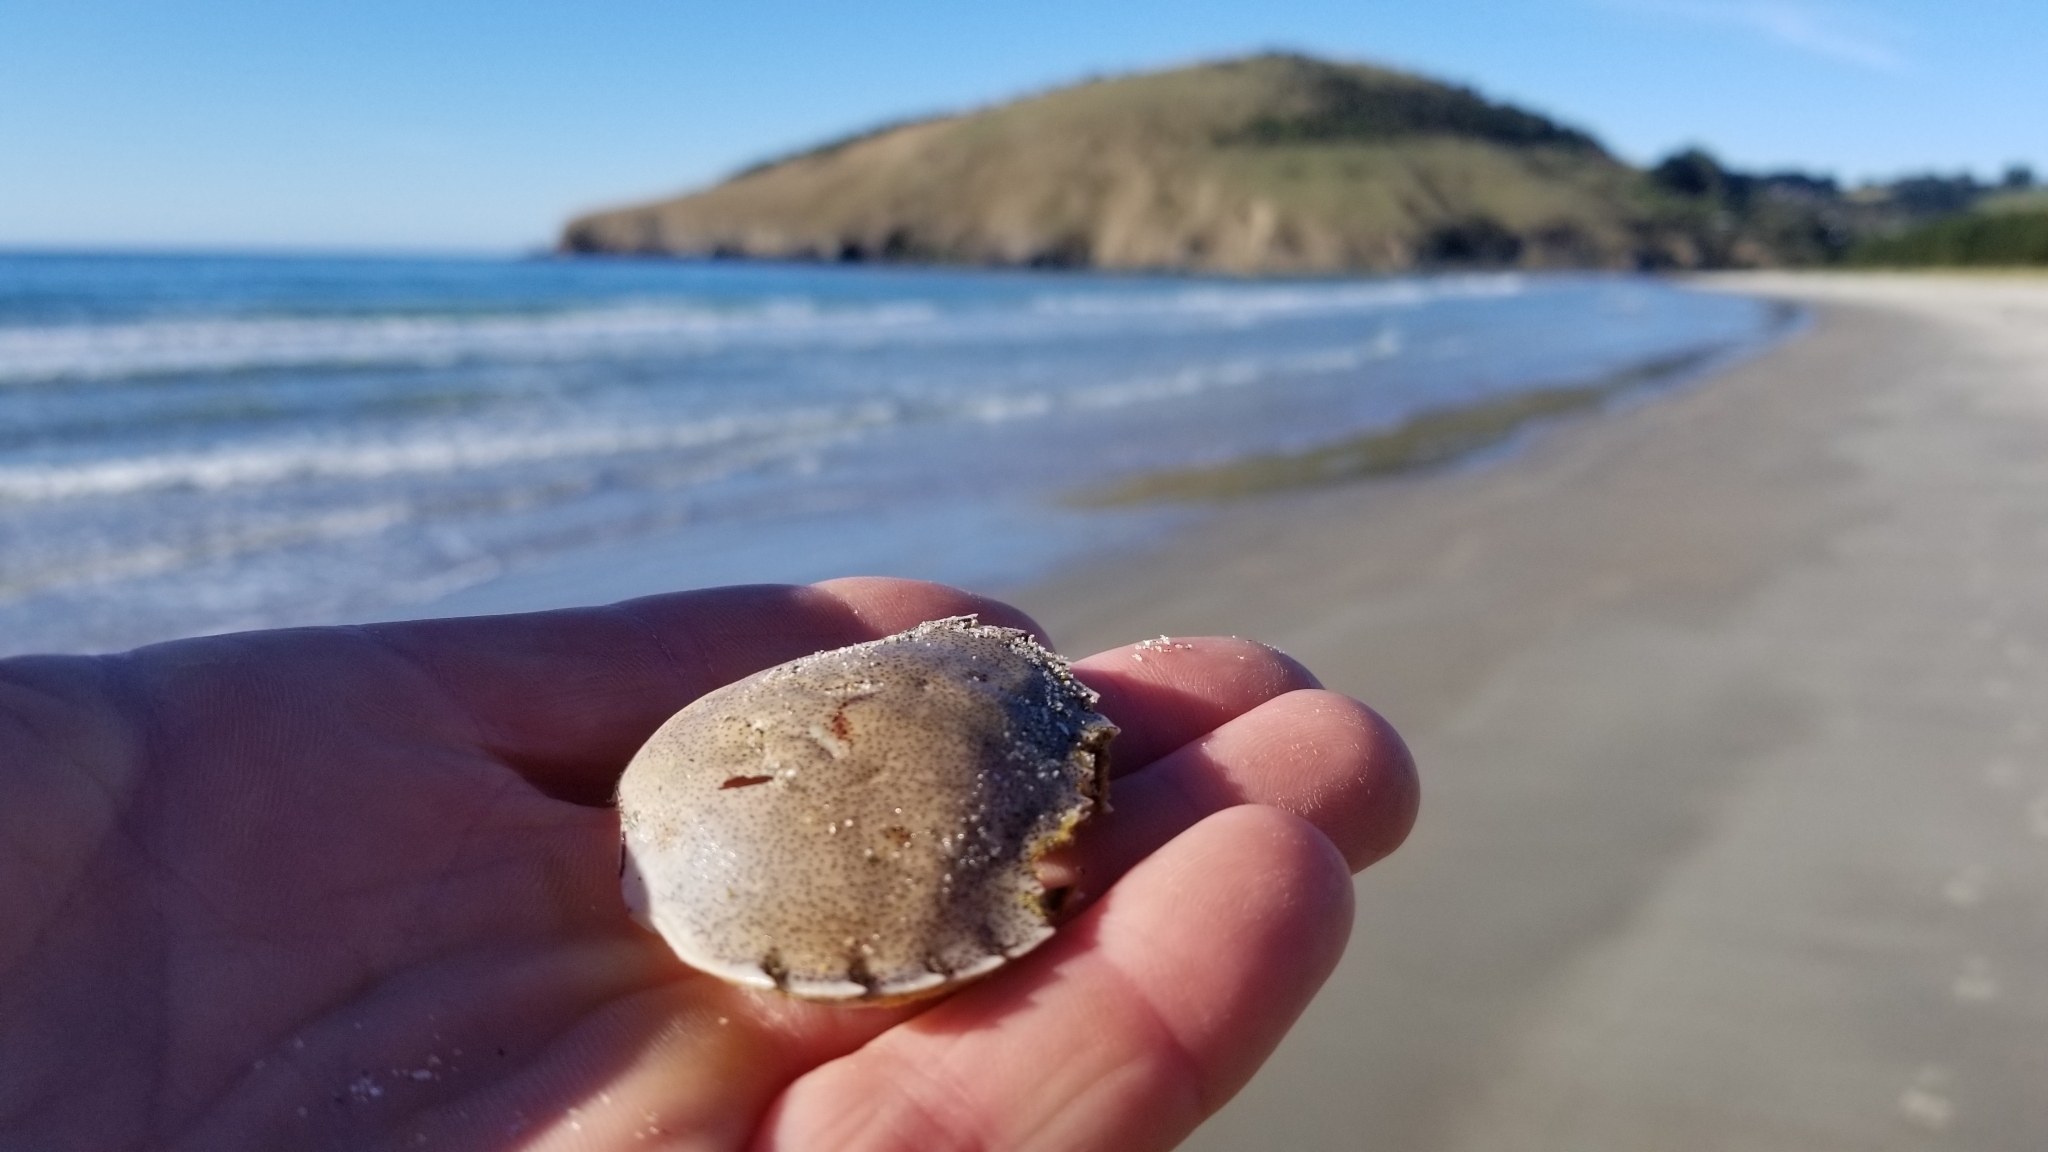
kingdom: Animalia
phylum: Arthropoda
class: Malacostraca
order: Decapoda
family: Ovalipidae
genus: Ovalipes
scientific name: Ovalipes catharus
